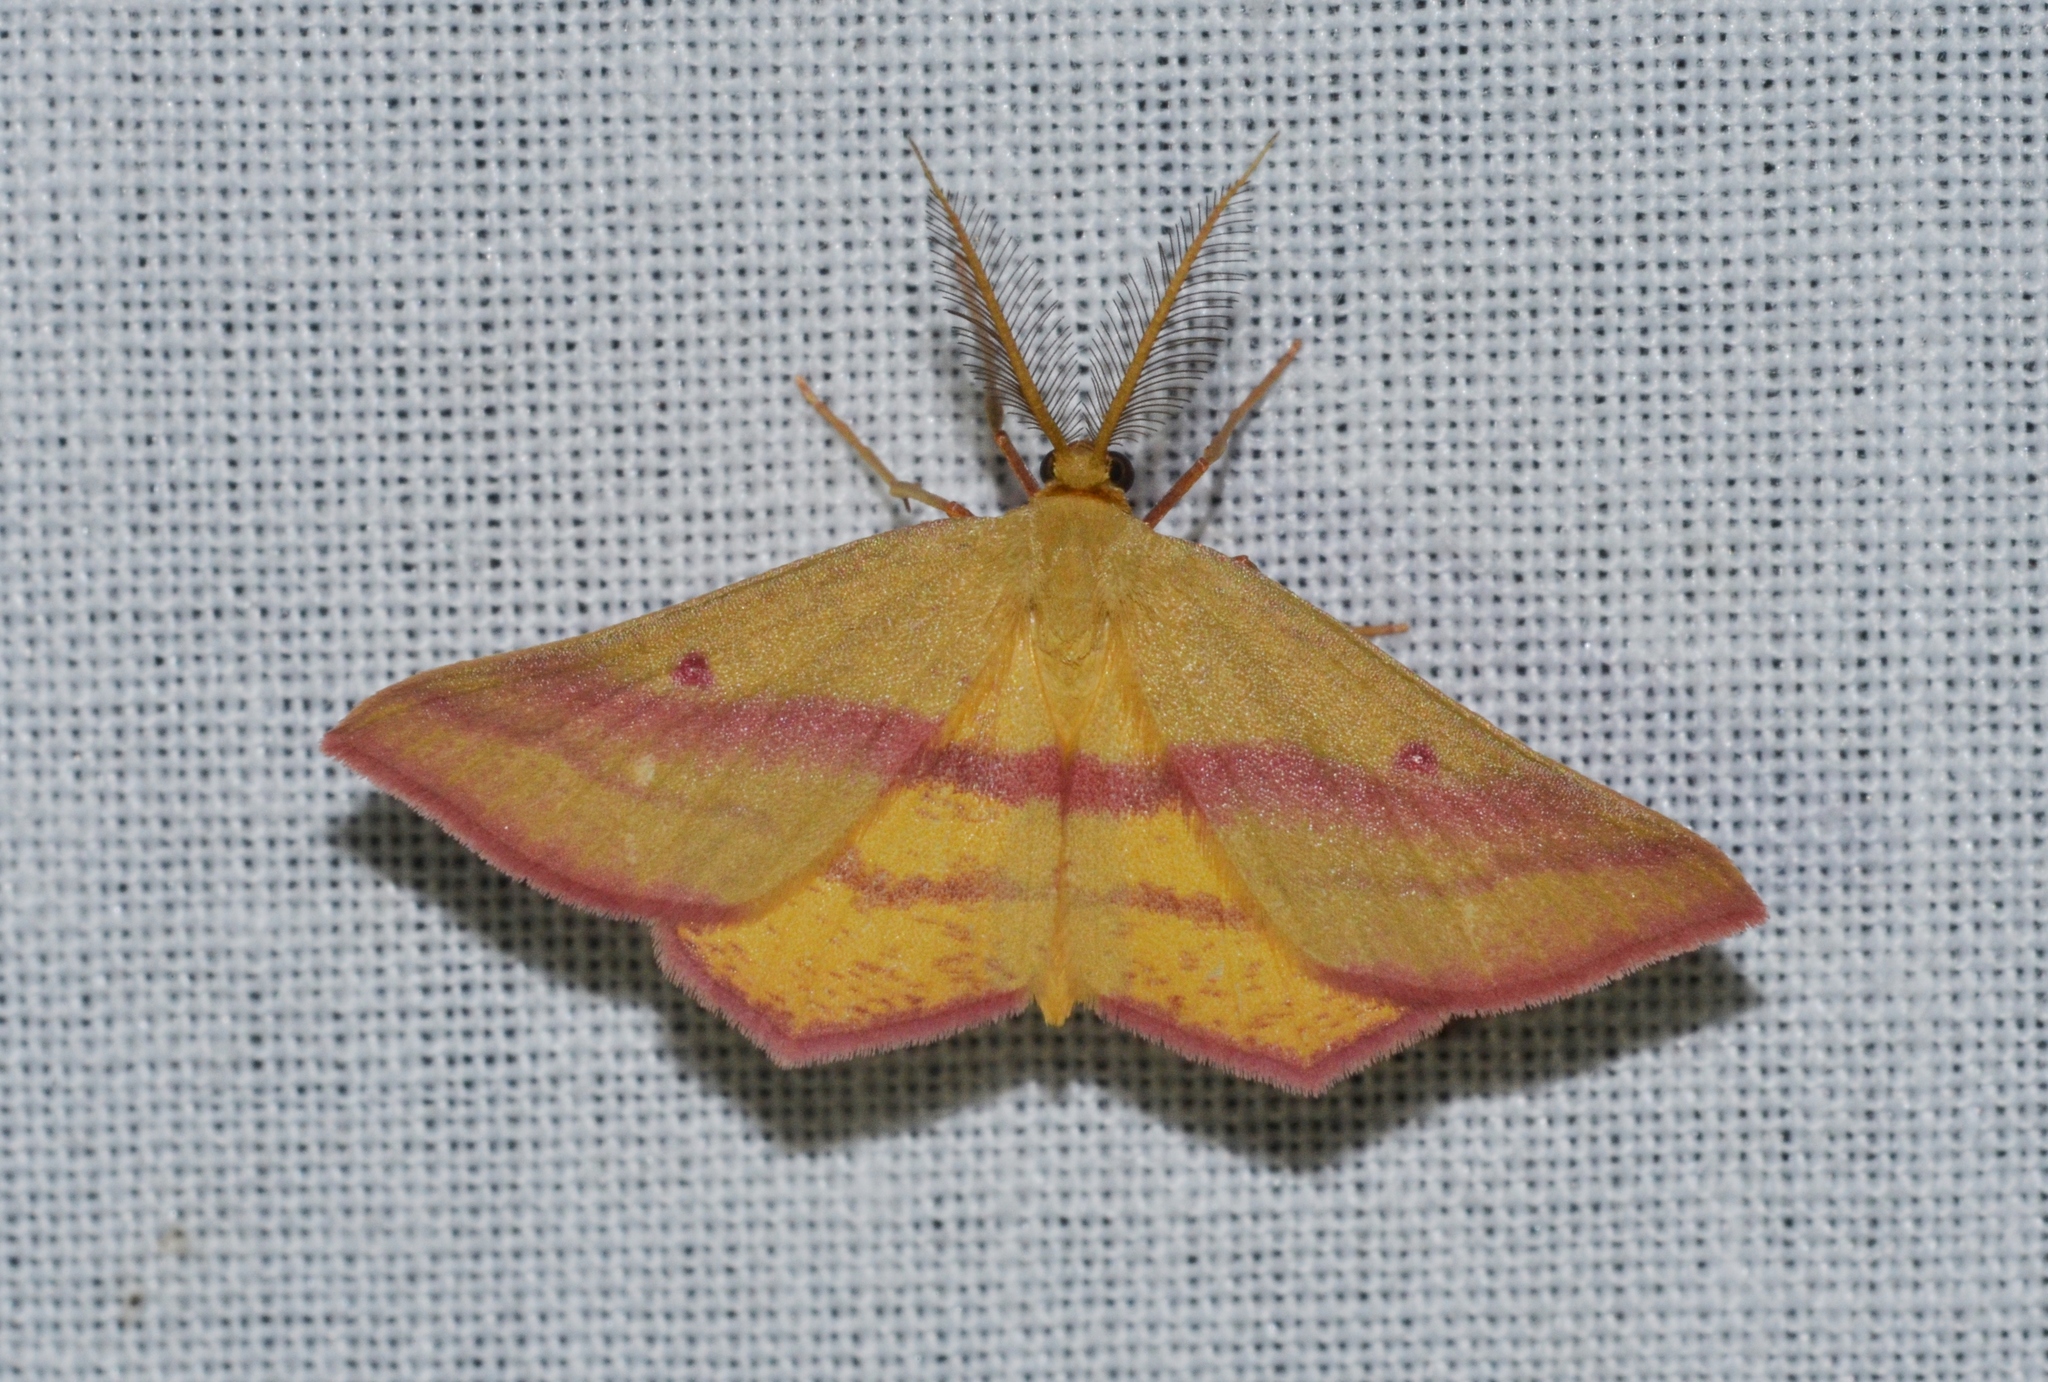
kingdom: Animalia
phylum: Arthropoda
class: Insecta
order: Lepidoptera
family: Geometridae
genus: Haematopis
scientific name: Haematopis grataria
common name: Chickweed geometer
